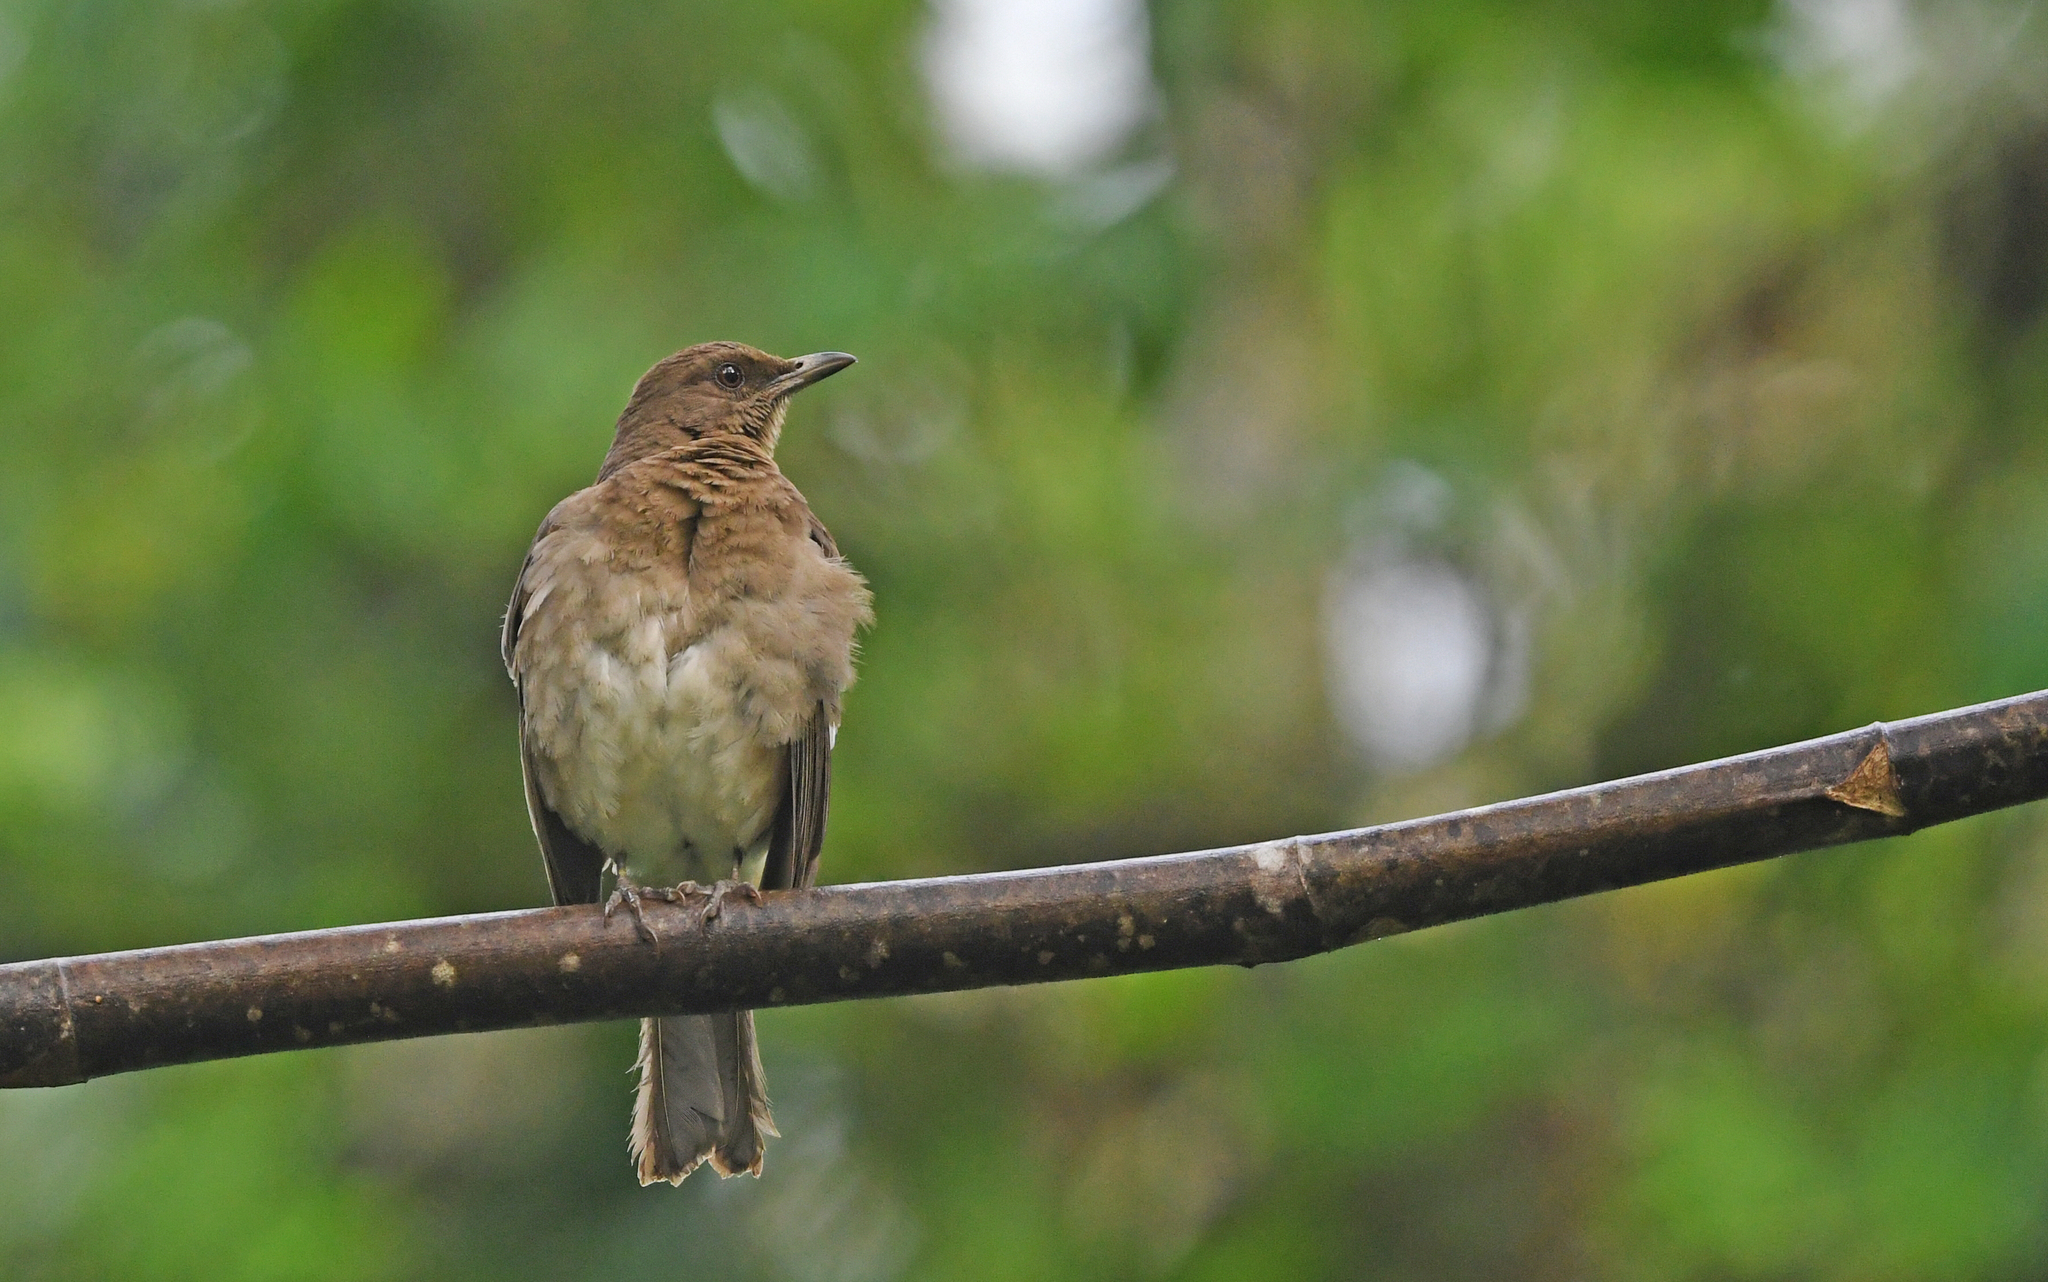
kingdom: Animalia
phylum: Chordata
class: Aves
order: Passeriformes
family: Turdidae
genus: Turdus
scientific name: Turdus ignobilis
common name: Black-billed thrush
